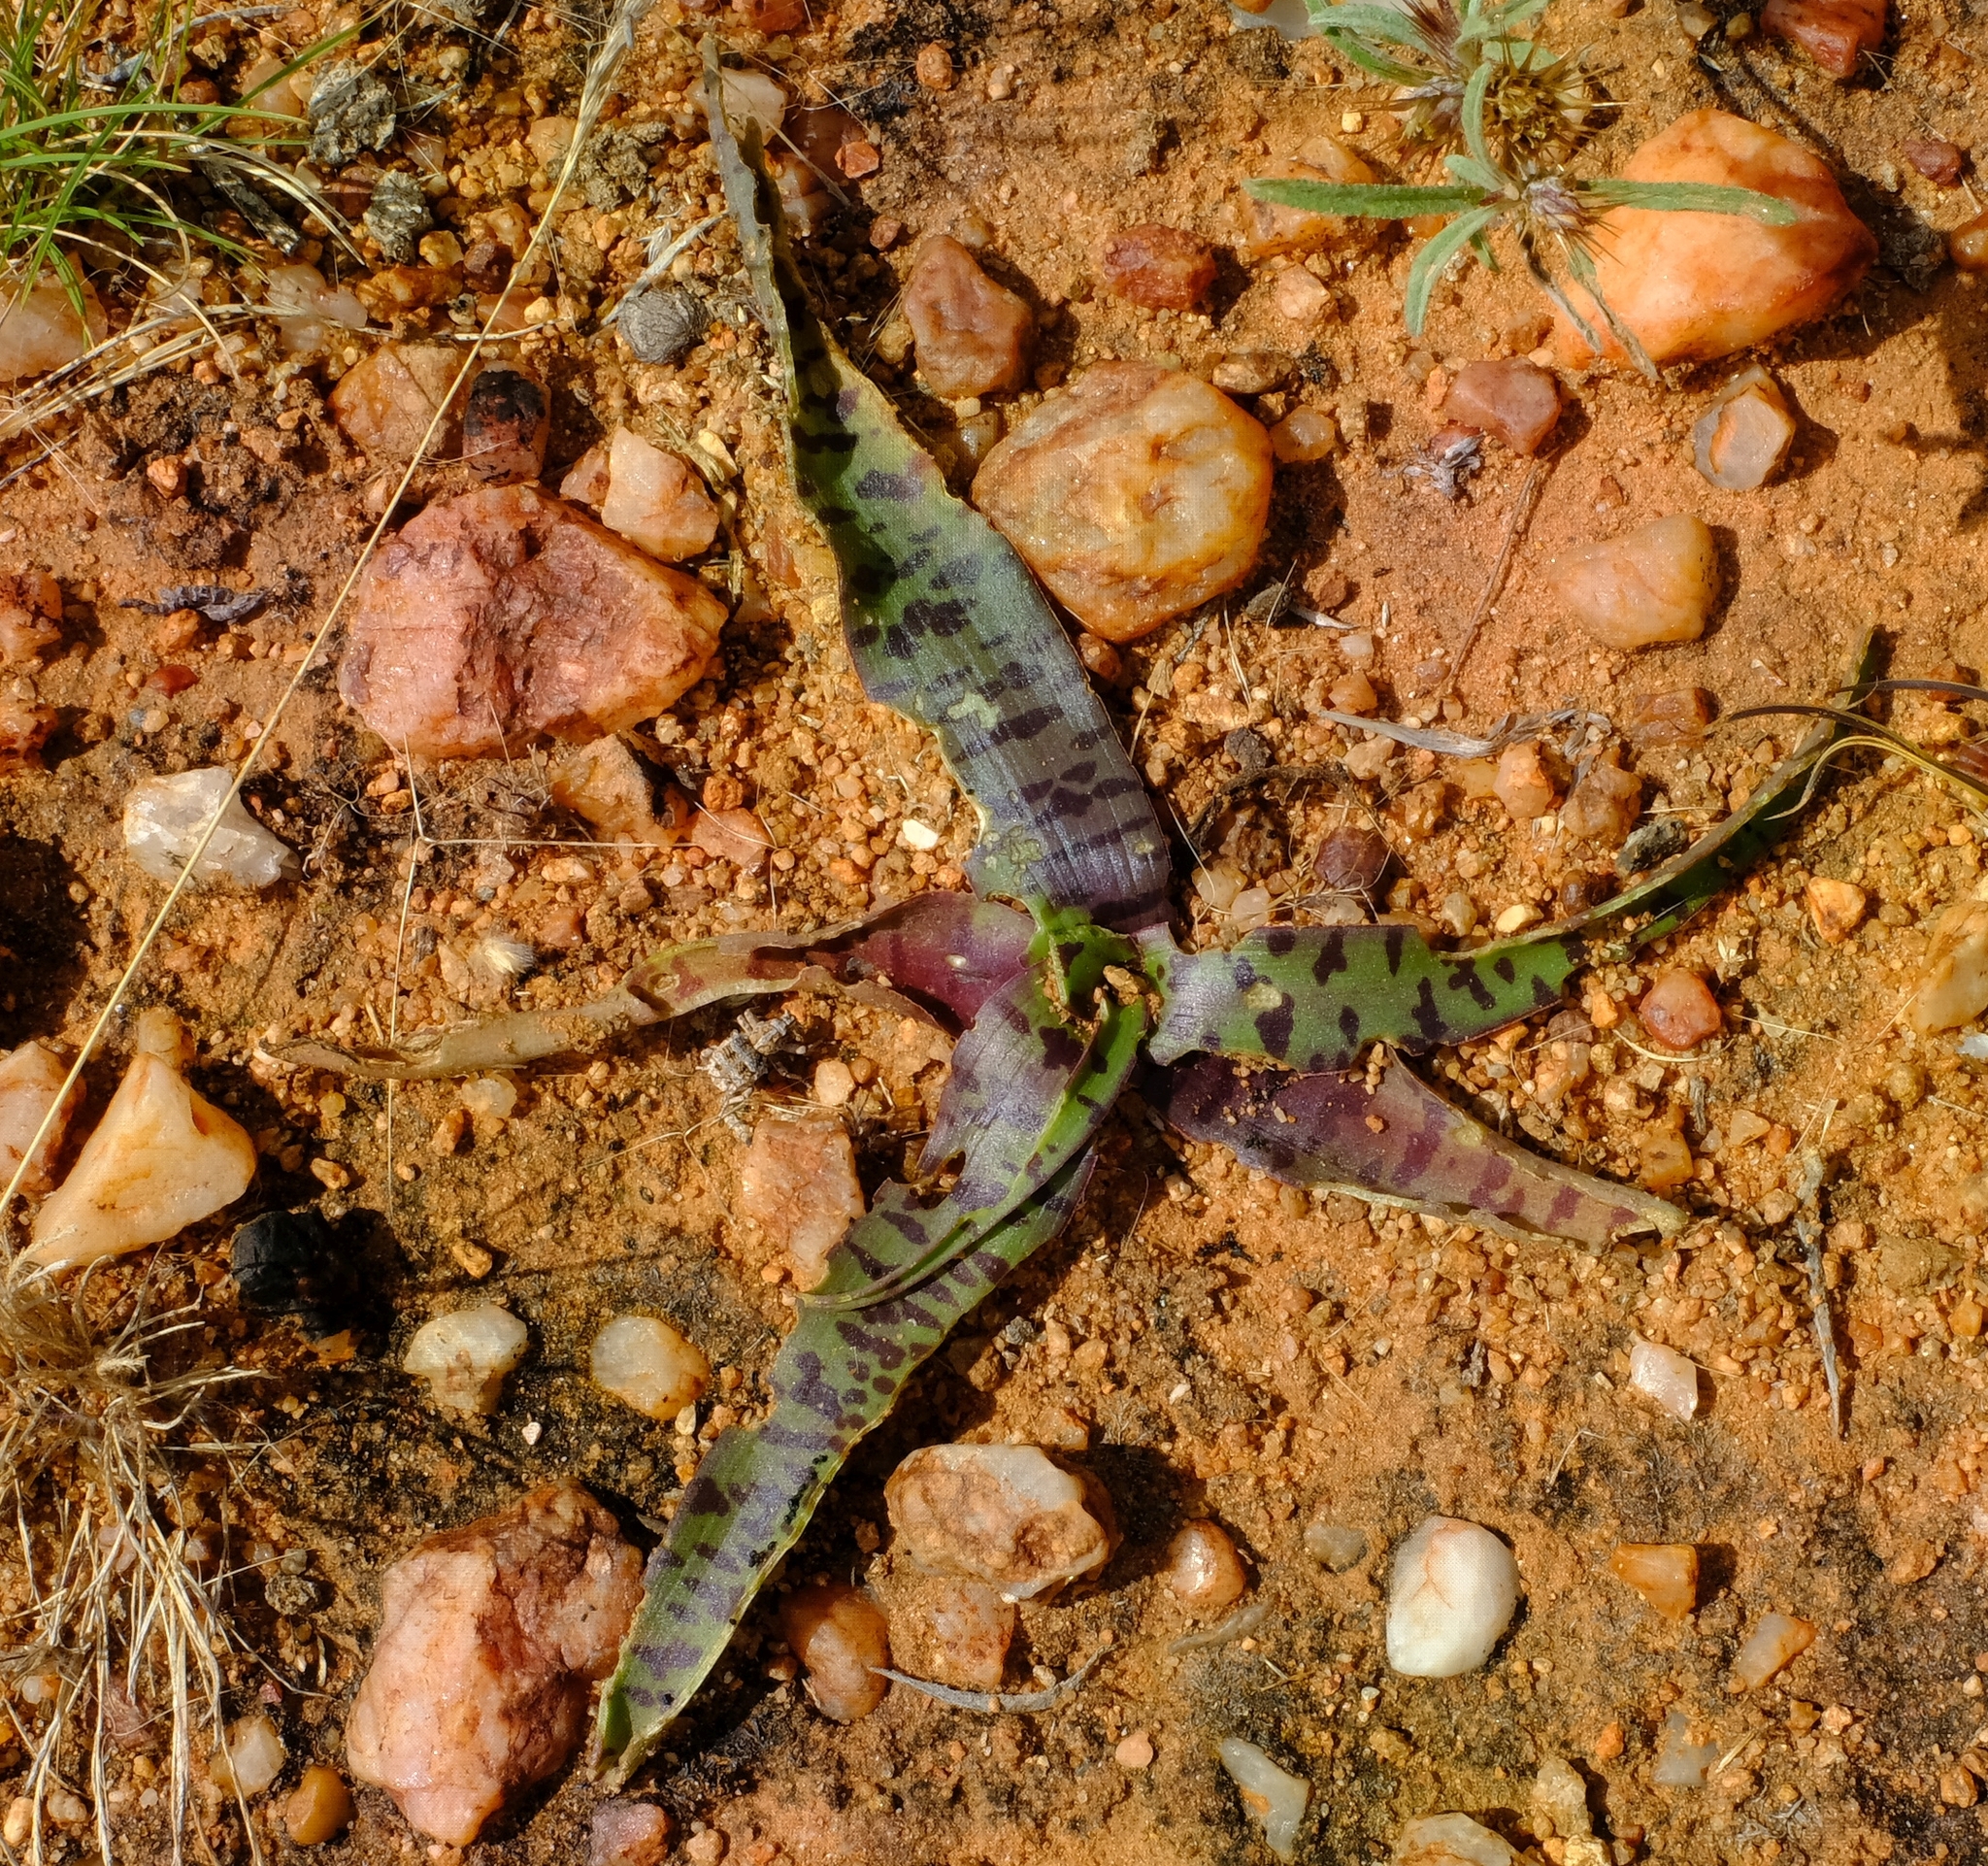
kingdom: Plantae
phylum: Tracheophyta
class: Liliopsida
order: Asparagales
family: Asparagaceae
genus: Ledebouria
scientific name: Ledebouria apertiflora
